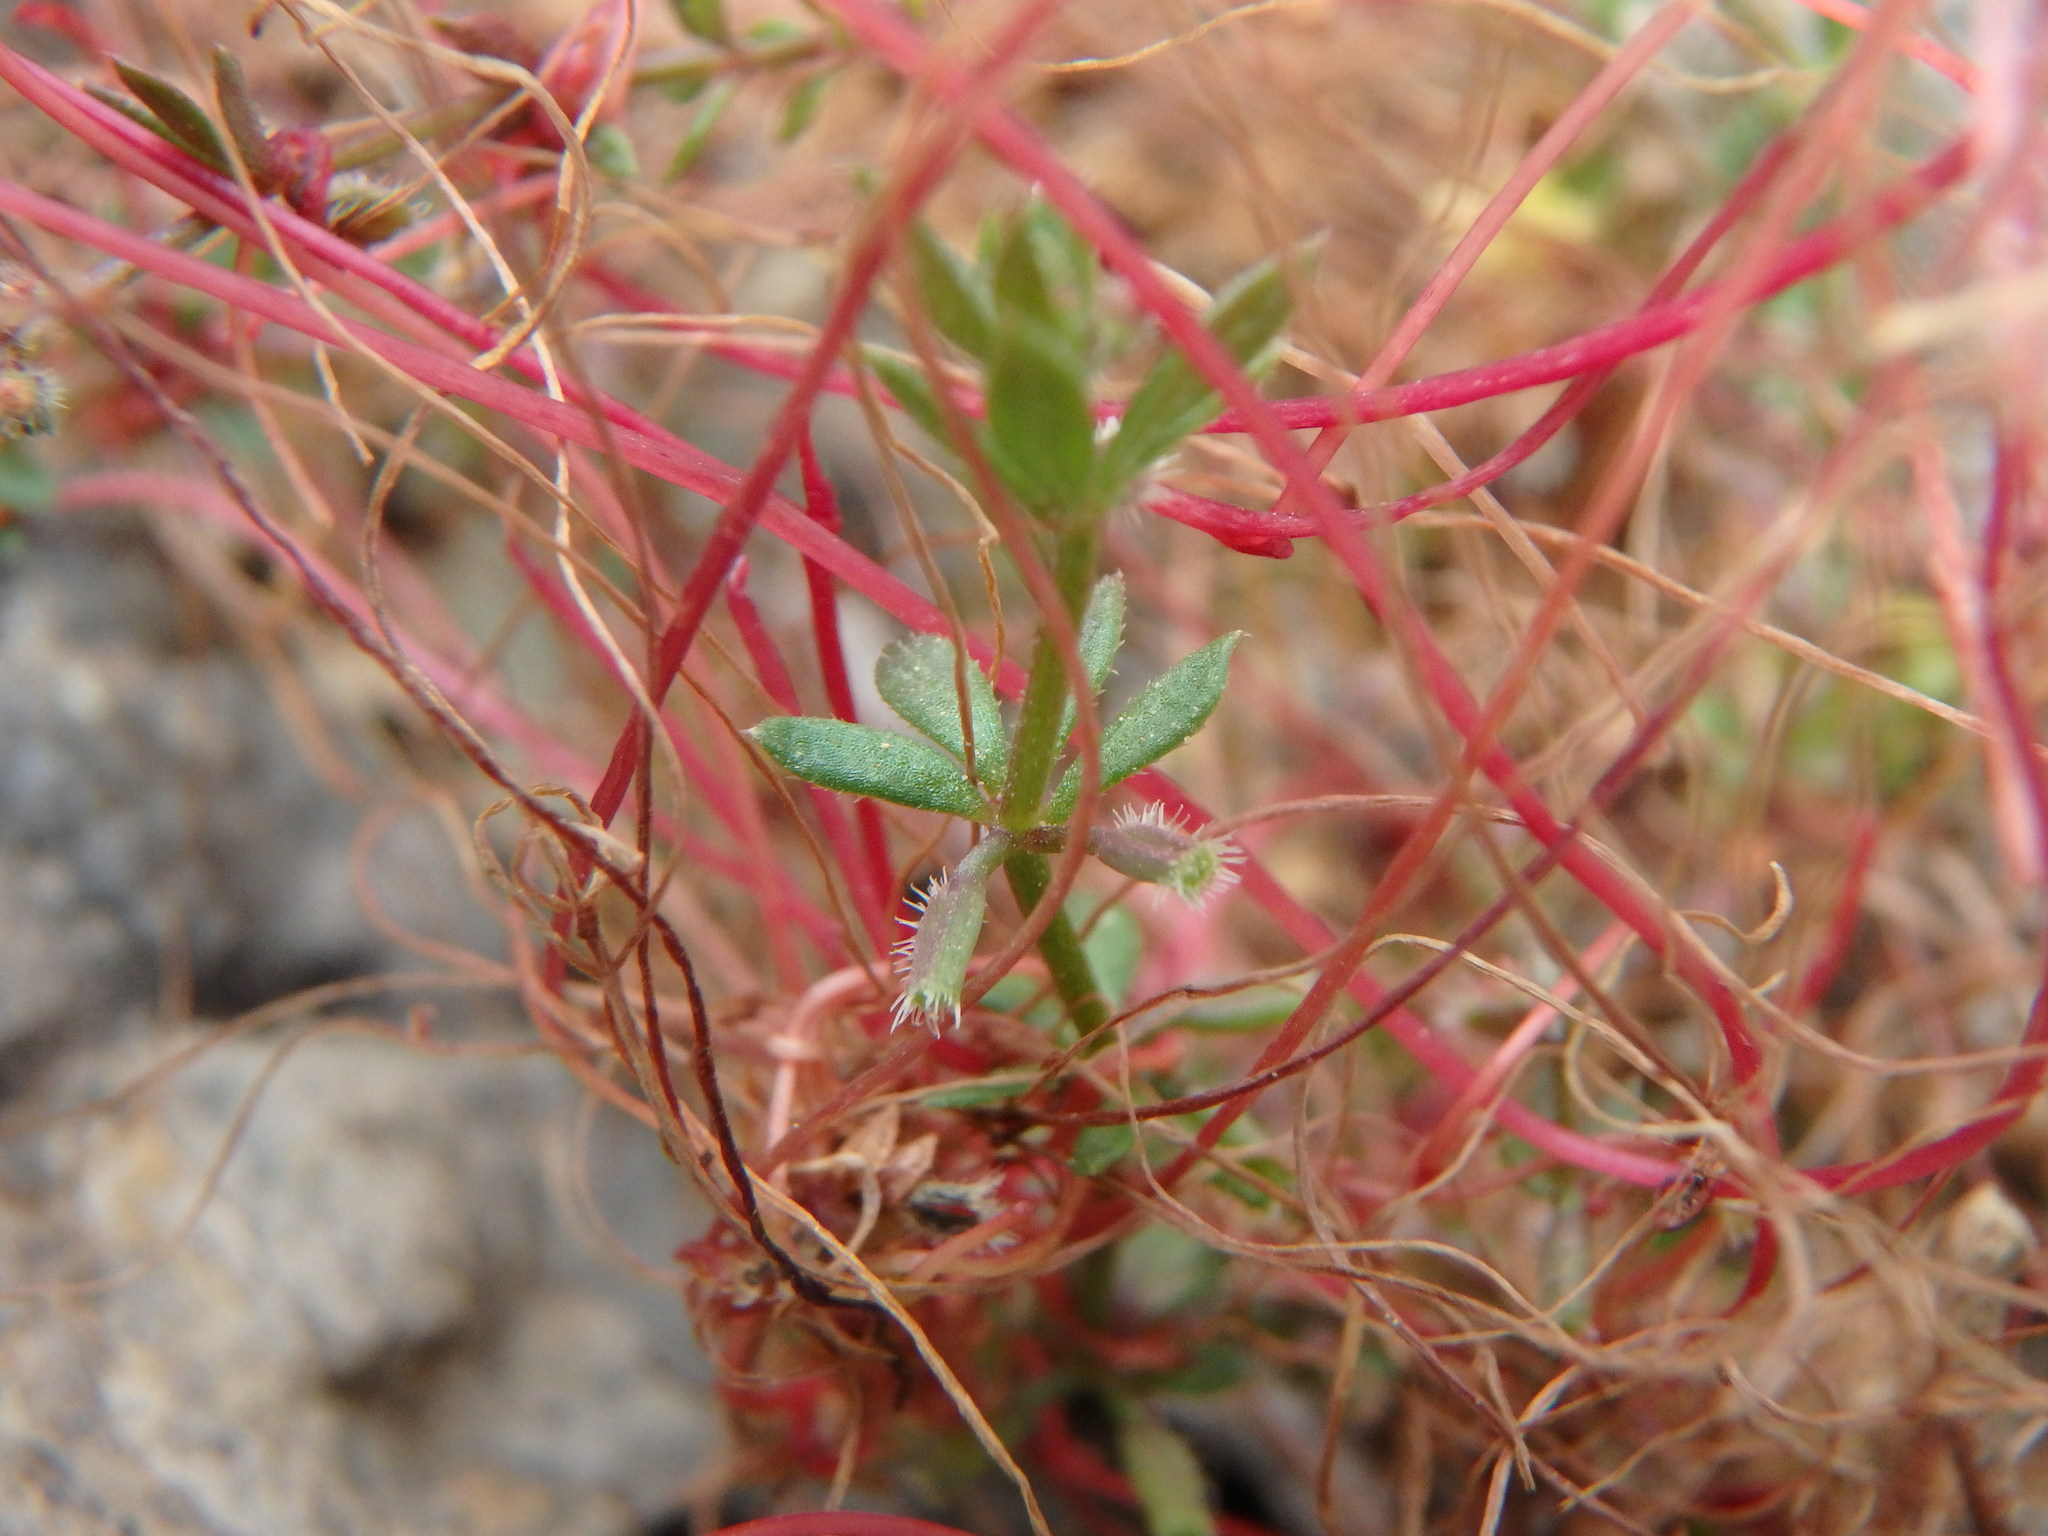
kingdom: Plantae
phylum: Tracheophyta
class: Magnoliopsida
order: Gentianales
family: Rubiaceae
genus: Galium
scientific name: Galium murale
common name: Yellow wall bedstraw
